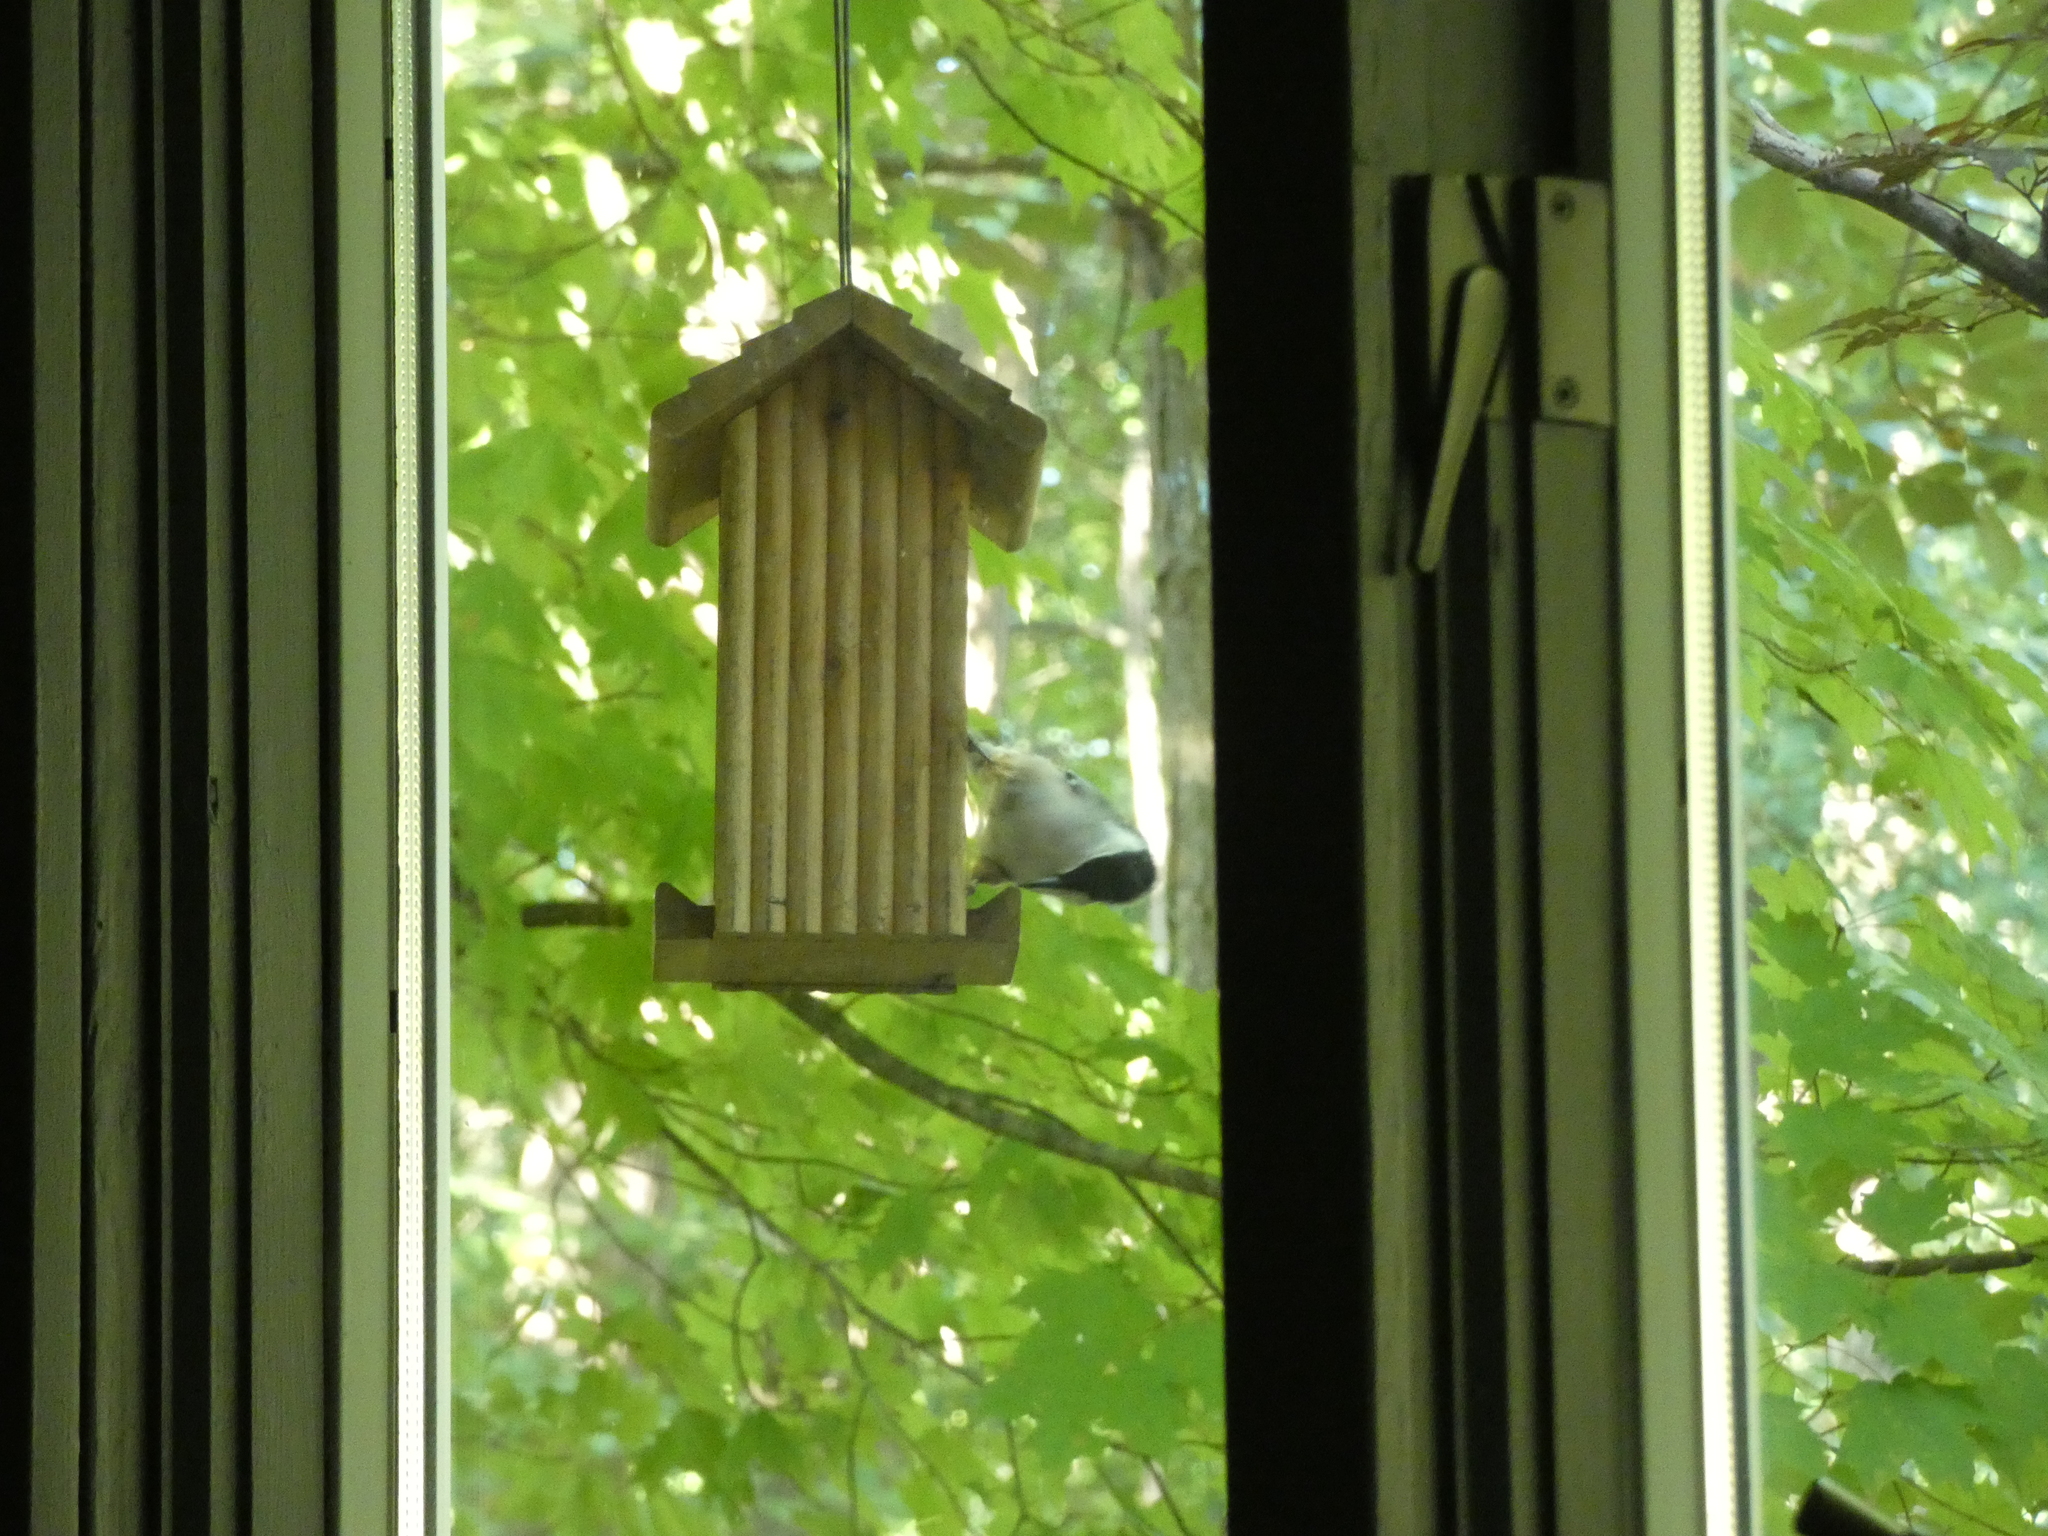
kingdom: Animalia
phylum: Chordata
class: Aves
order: Passeriformes
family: Sittidae
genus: Sitta
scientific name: Sitta carolinensis
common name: White-breasted nuthatch
